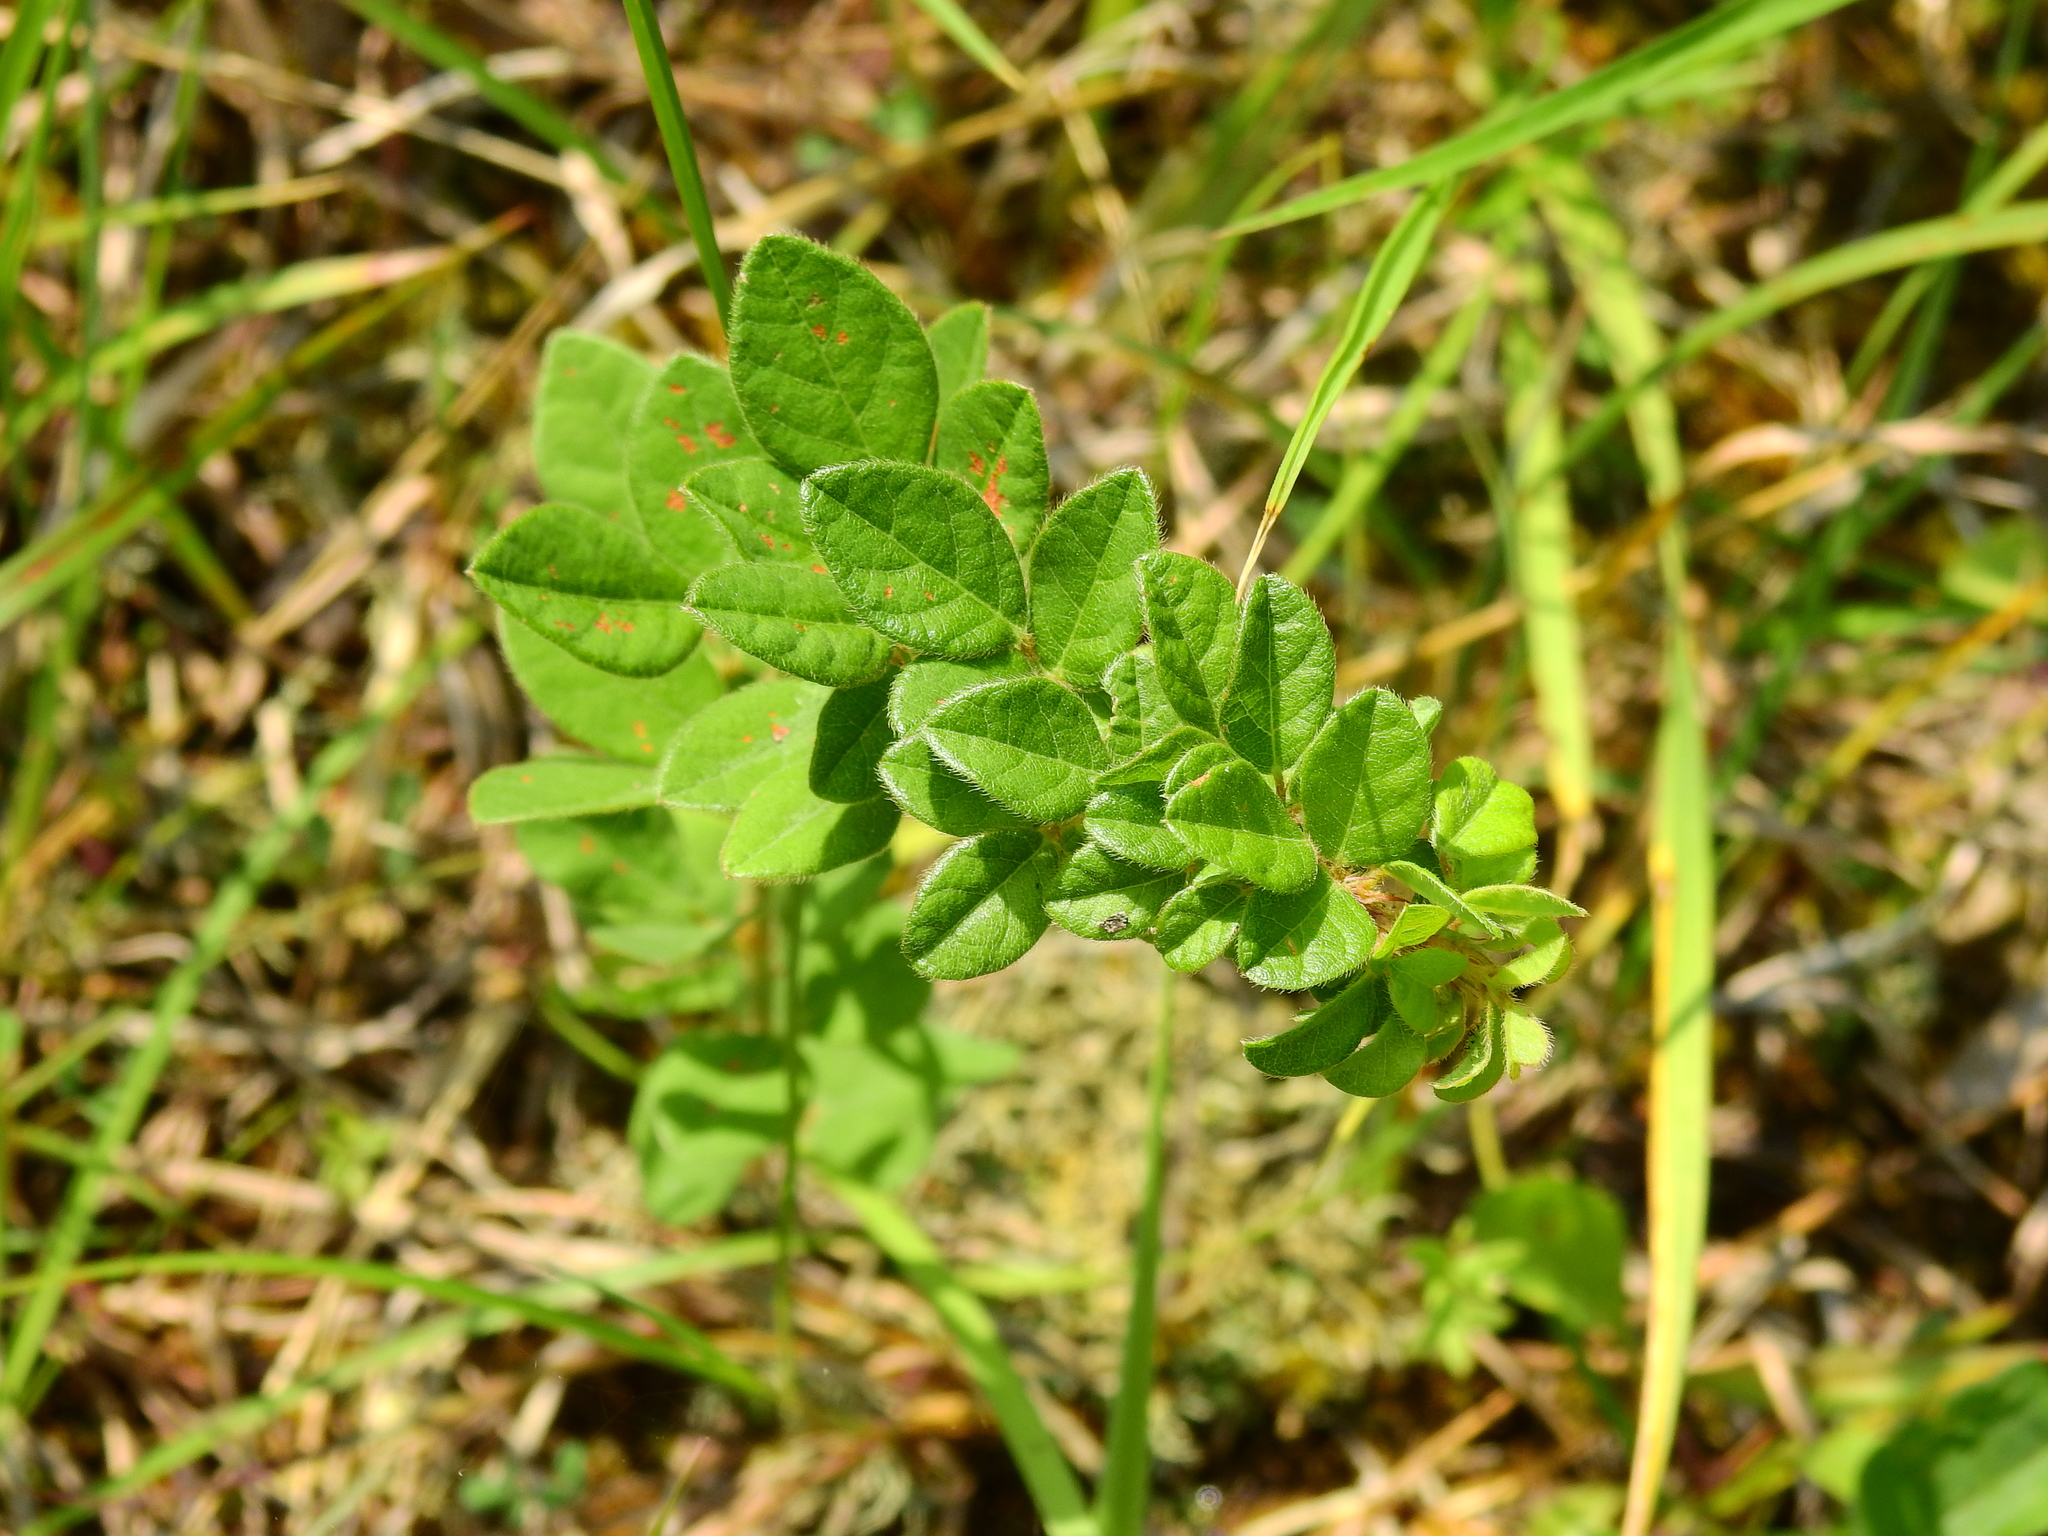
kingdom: Plantae
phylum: Tracheophyta
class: Magnoliopsida
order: Fabales
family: Fabaceae
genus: Lespedeza
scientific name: Lespedeza hirta
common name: Hairy lespedeza
